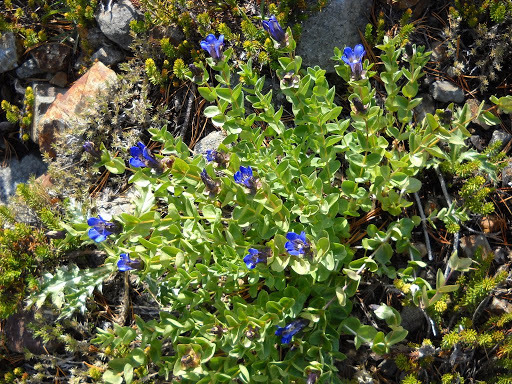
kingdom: Plantae
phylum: Tracheophyta
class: Magnoliopsida
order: Gentianales
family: Gentianaceae
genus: Gentiana
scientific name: Gentiana calycosa
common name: Rainier pleated gentian
